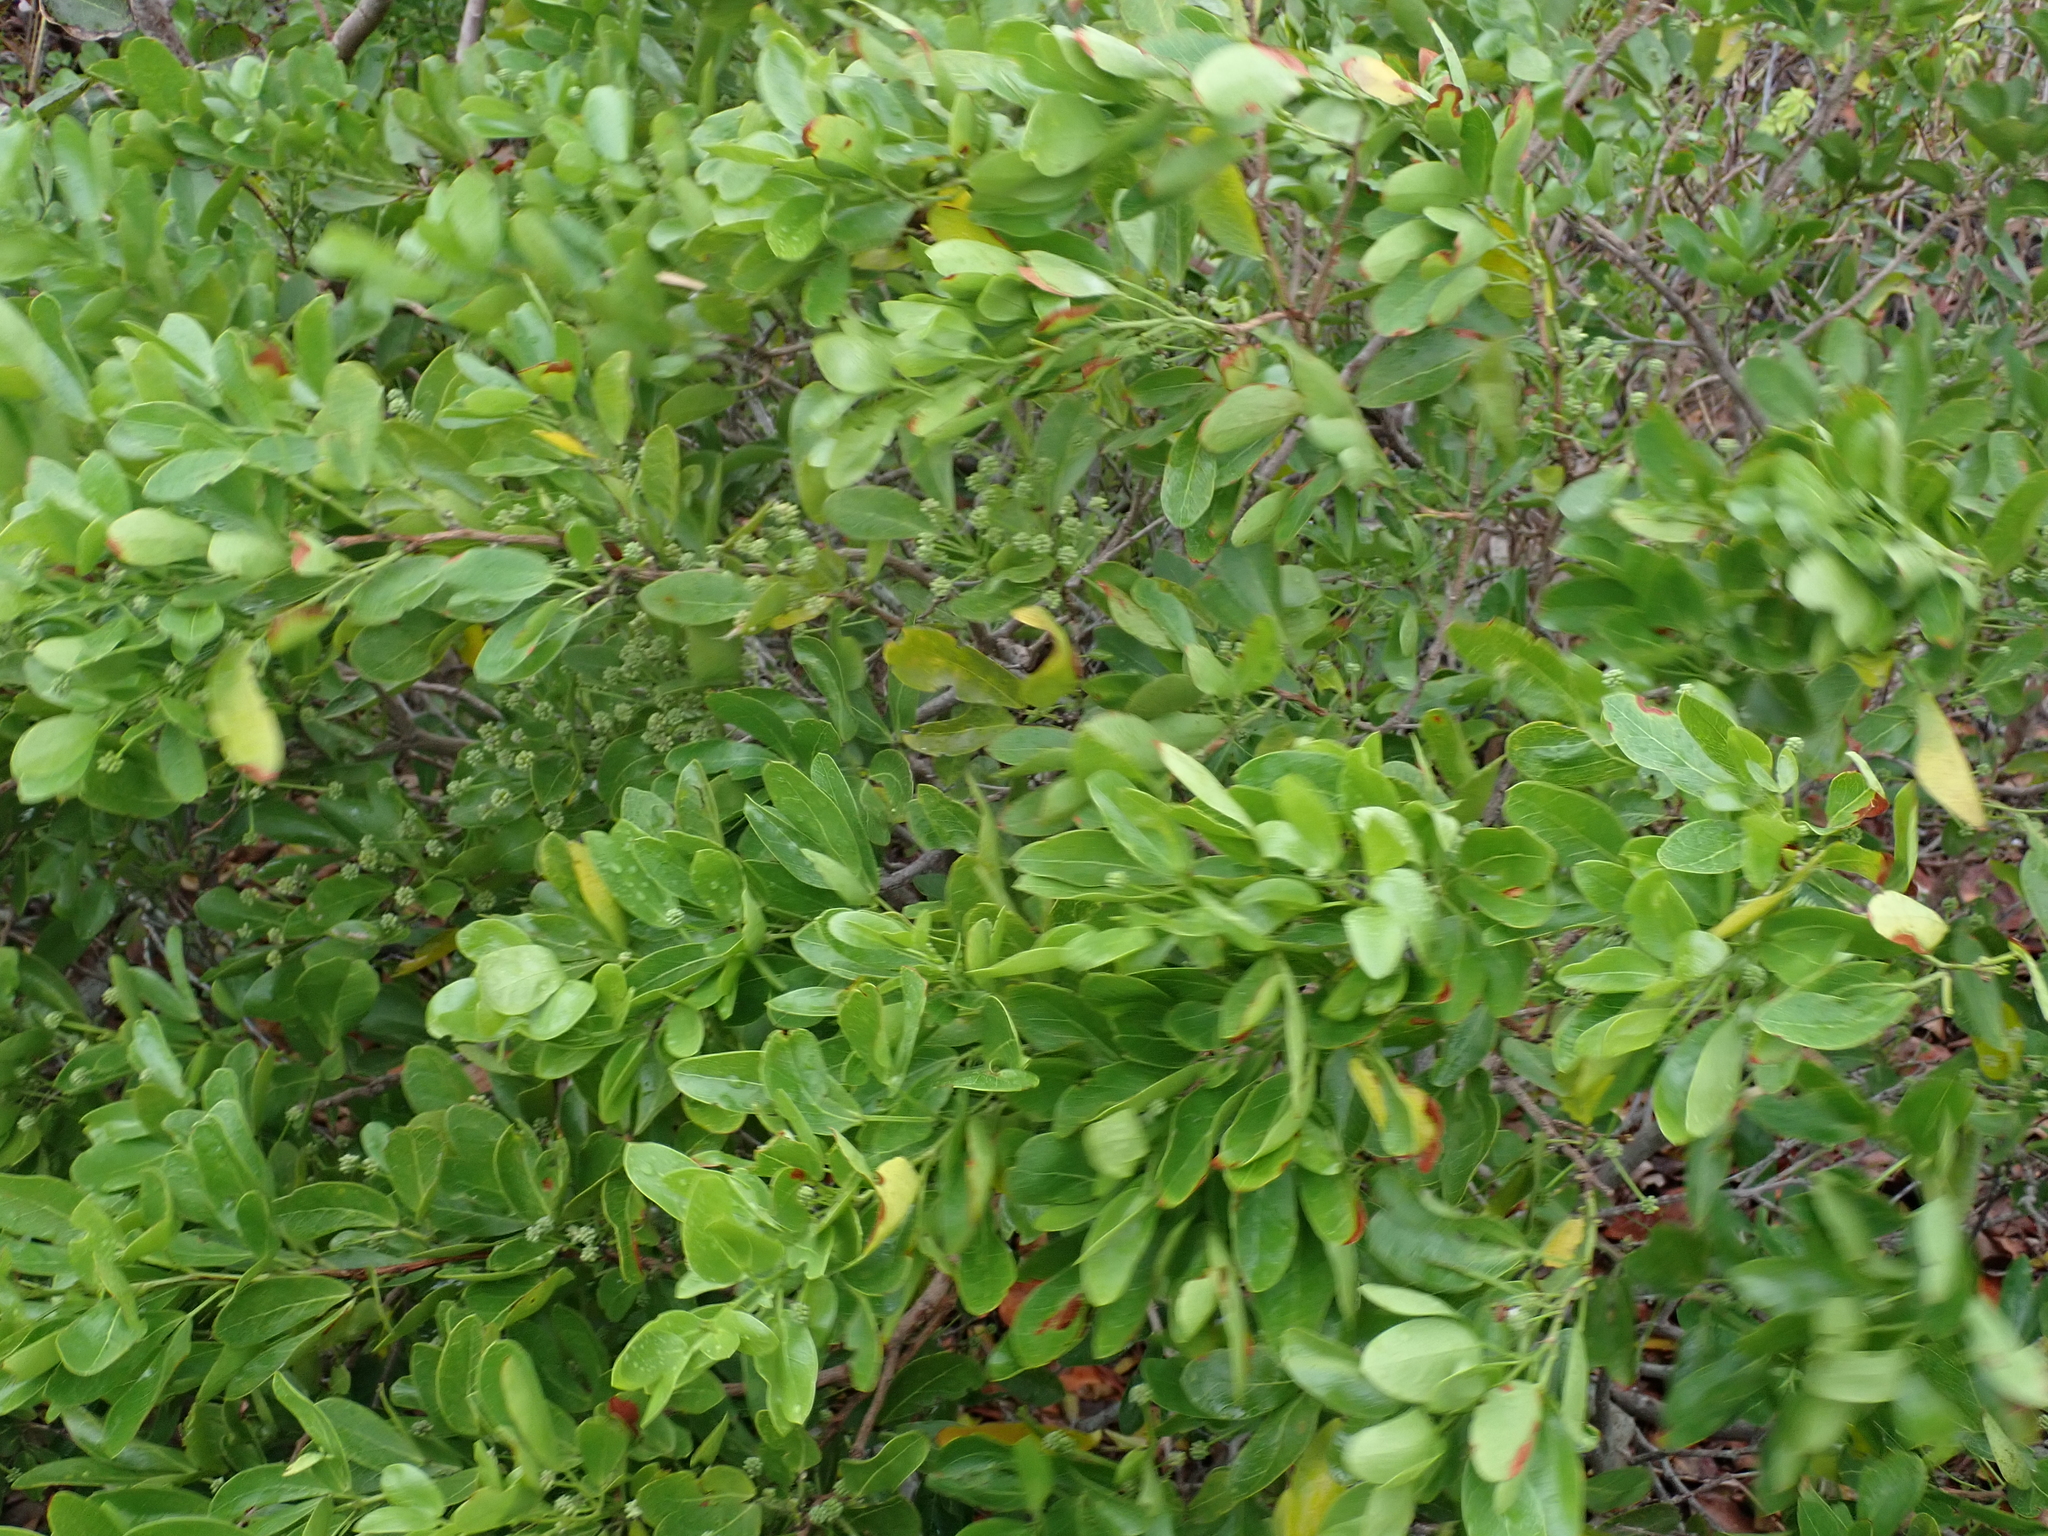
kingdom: Plantae
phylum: Tracheophyta
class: Magnoliopsida
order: Fabales
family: Fabaceae
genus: Pithecellobium
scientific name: Pithecellobium keyense
